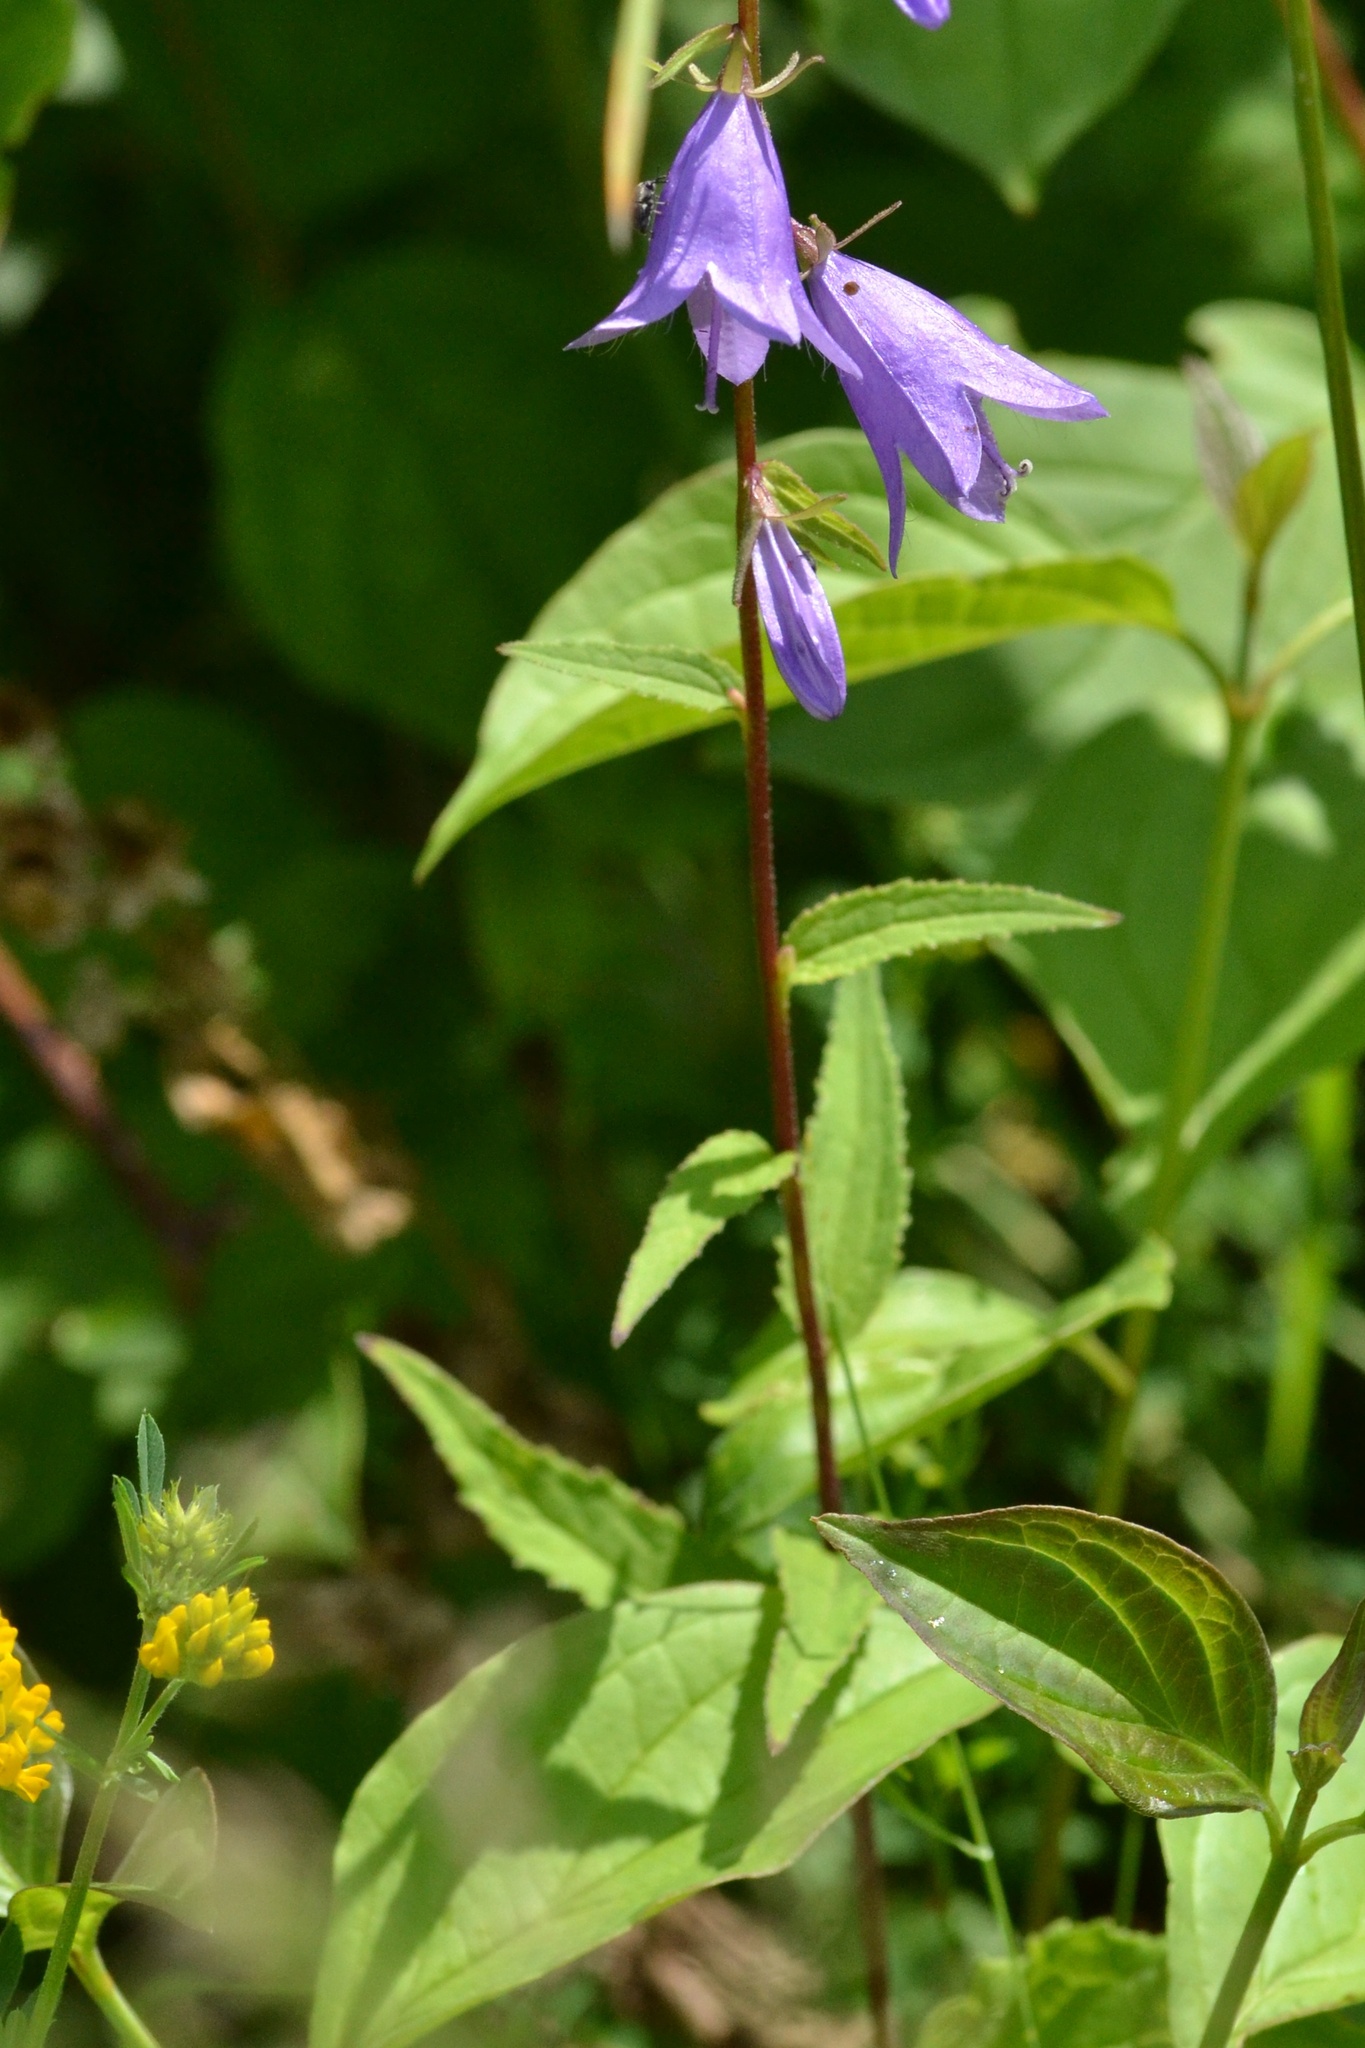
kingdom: Plantae
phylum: Tracheophyta
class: Magnoliopsida
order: Asterales
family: Campanulaceae
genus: Campanula
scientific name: Campanula rapunculoides
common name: Creeping bellflower
